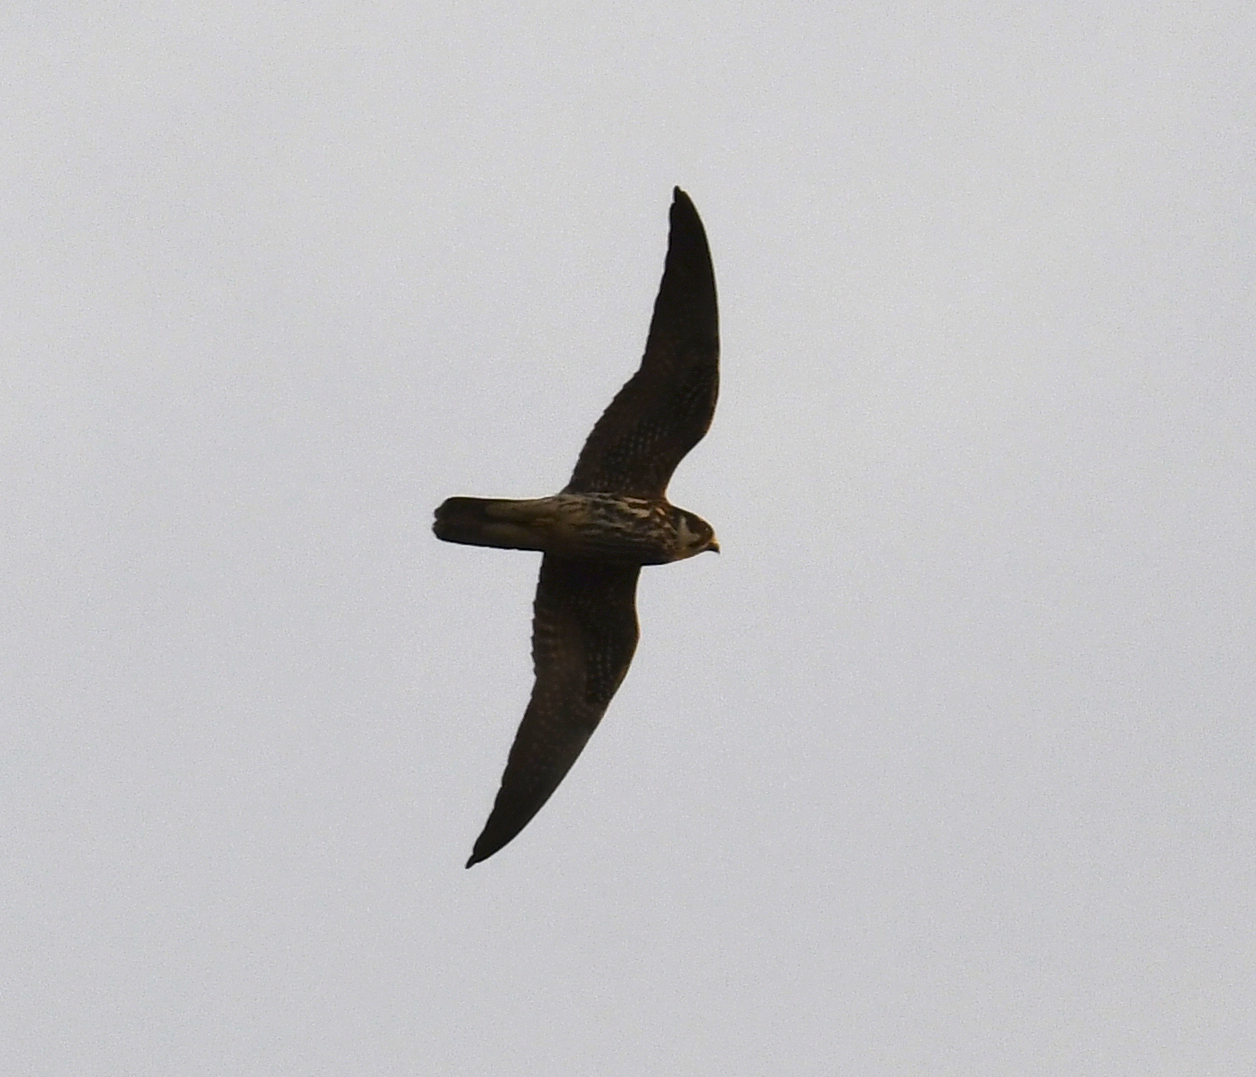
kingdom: Animalia
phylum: Chordata
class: Aves
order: Falconiformes
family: Falconidae
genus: Falco
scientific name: Falco subbuteo
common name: Eurasian hobby
